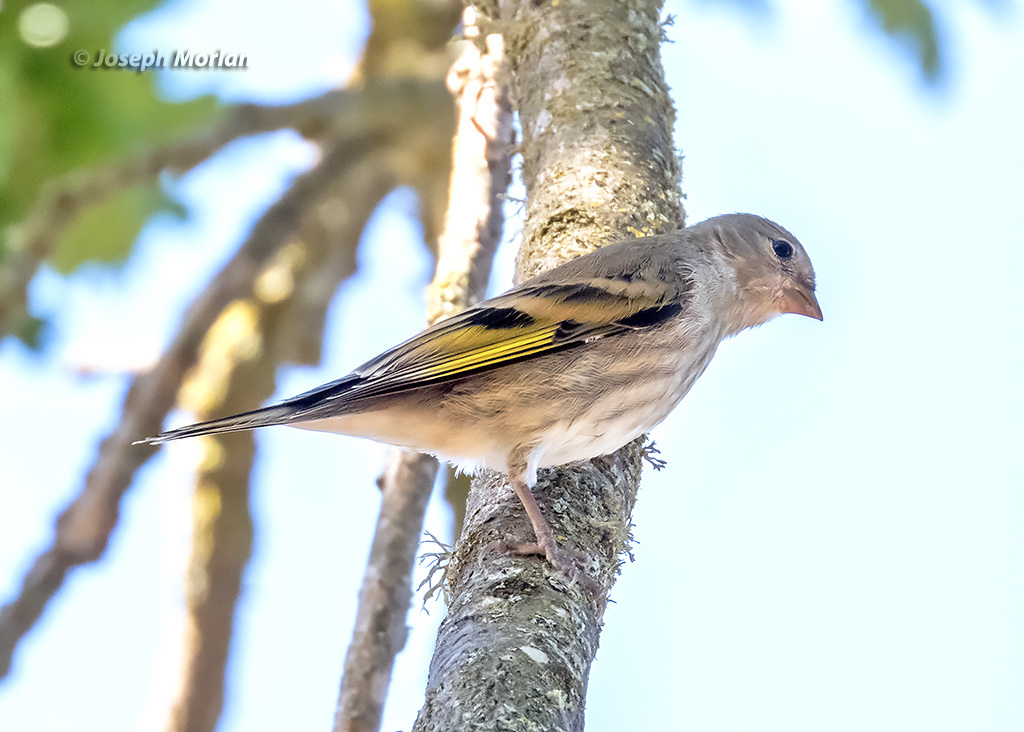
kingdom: Animalia
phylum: Chordata
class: Aves
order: Passeriformes
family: Fringillidae
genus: Spinus
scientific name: Spinus lawrencei
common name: Lawrence's goldfinch
